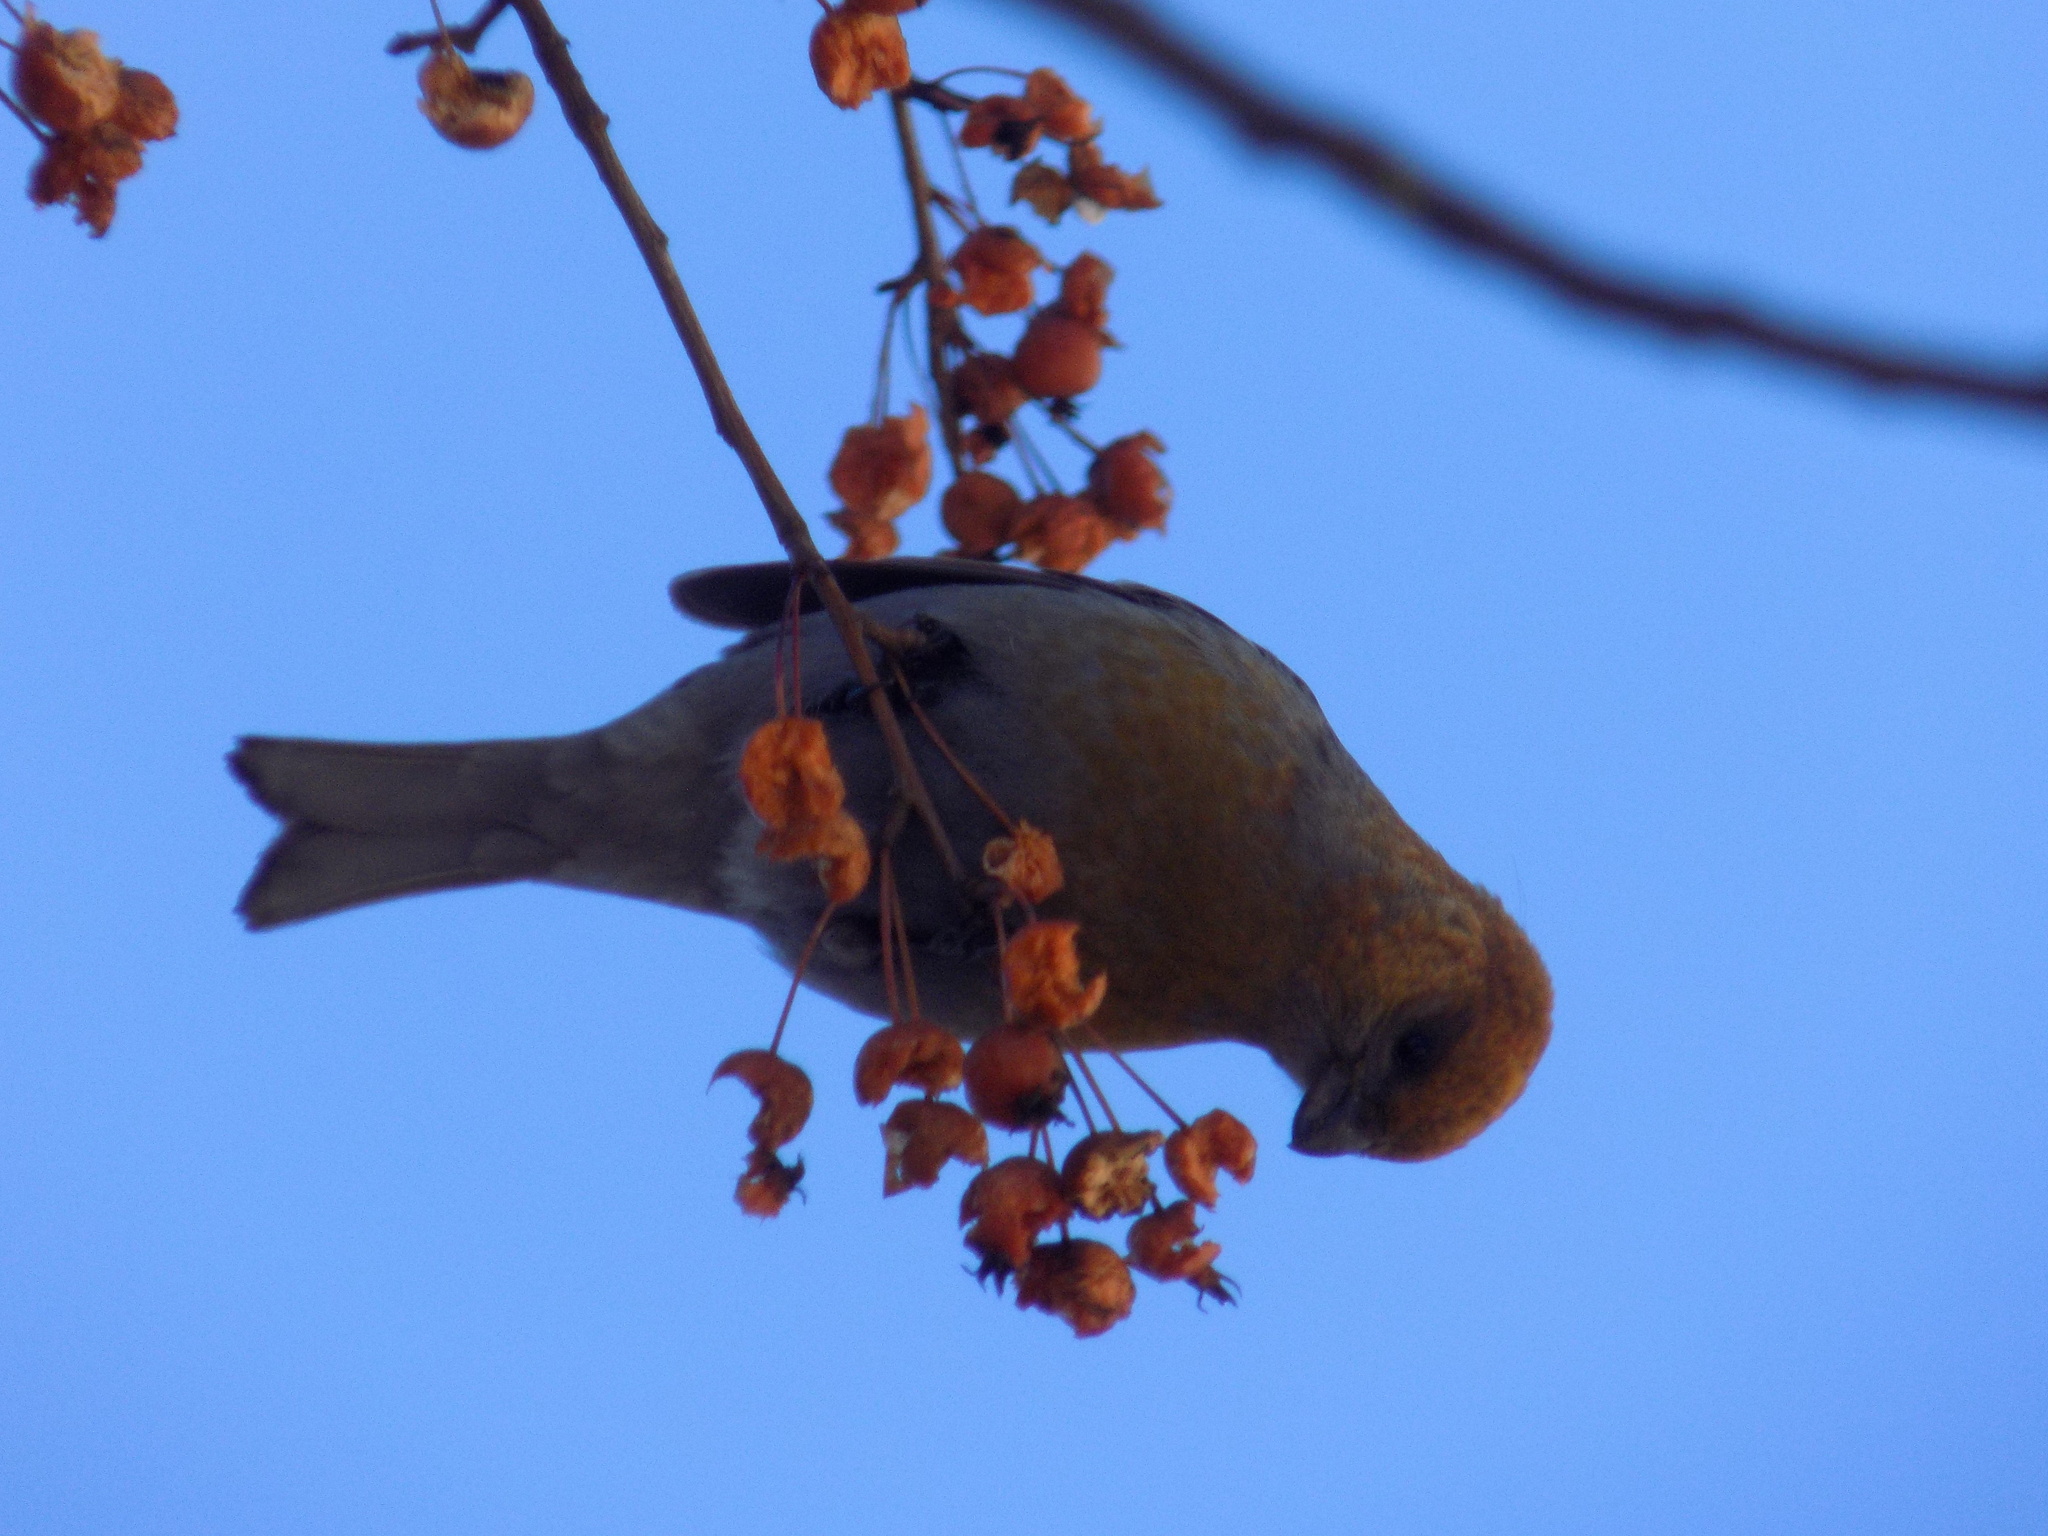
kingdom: Animalia
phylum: Chordata
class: Aves
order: Passeriformes
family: Fringillidae
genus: Pinicola
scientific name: Pinicola enucleator
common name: Pine grosbeak
